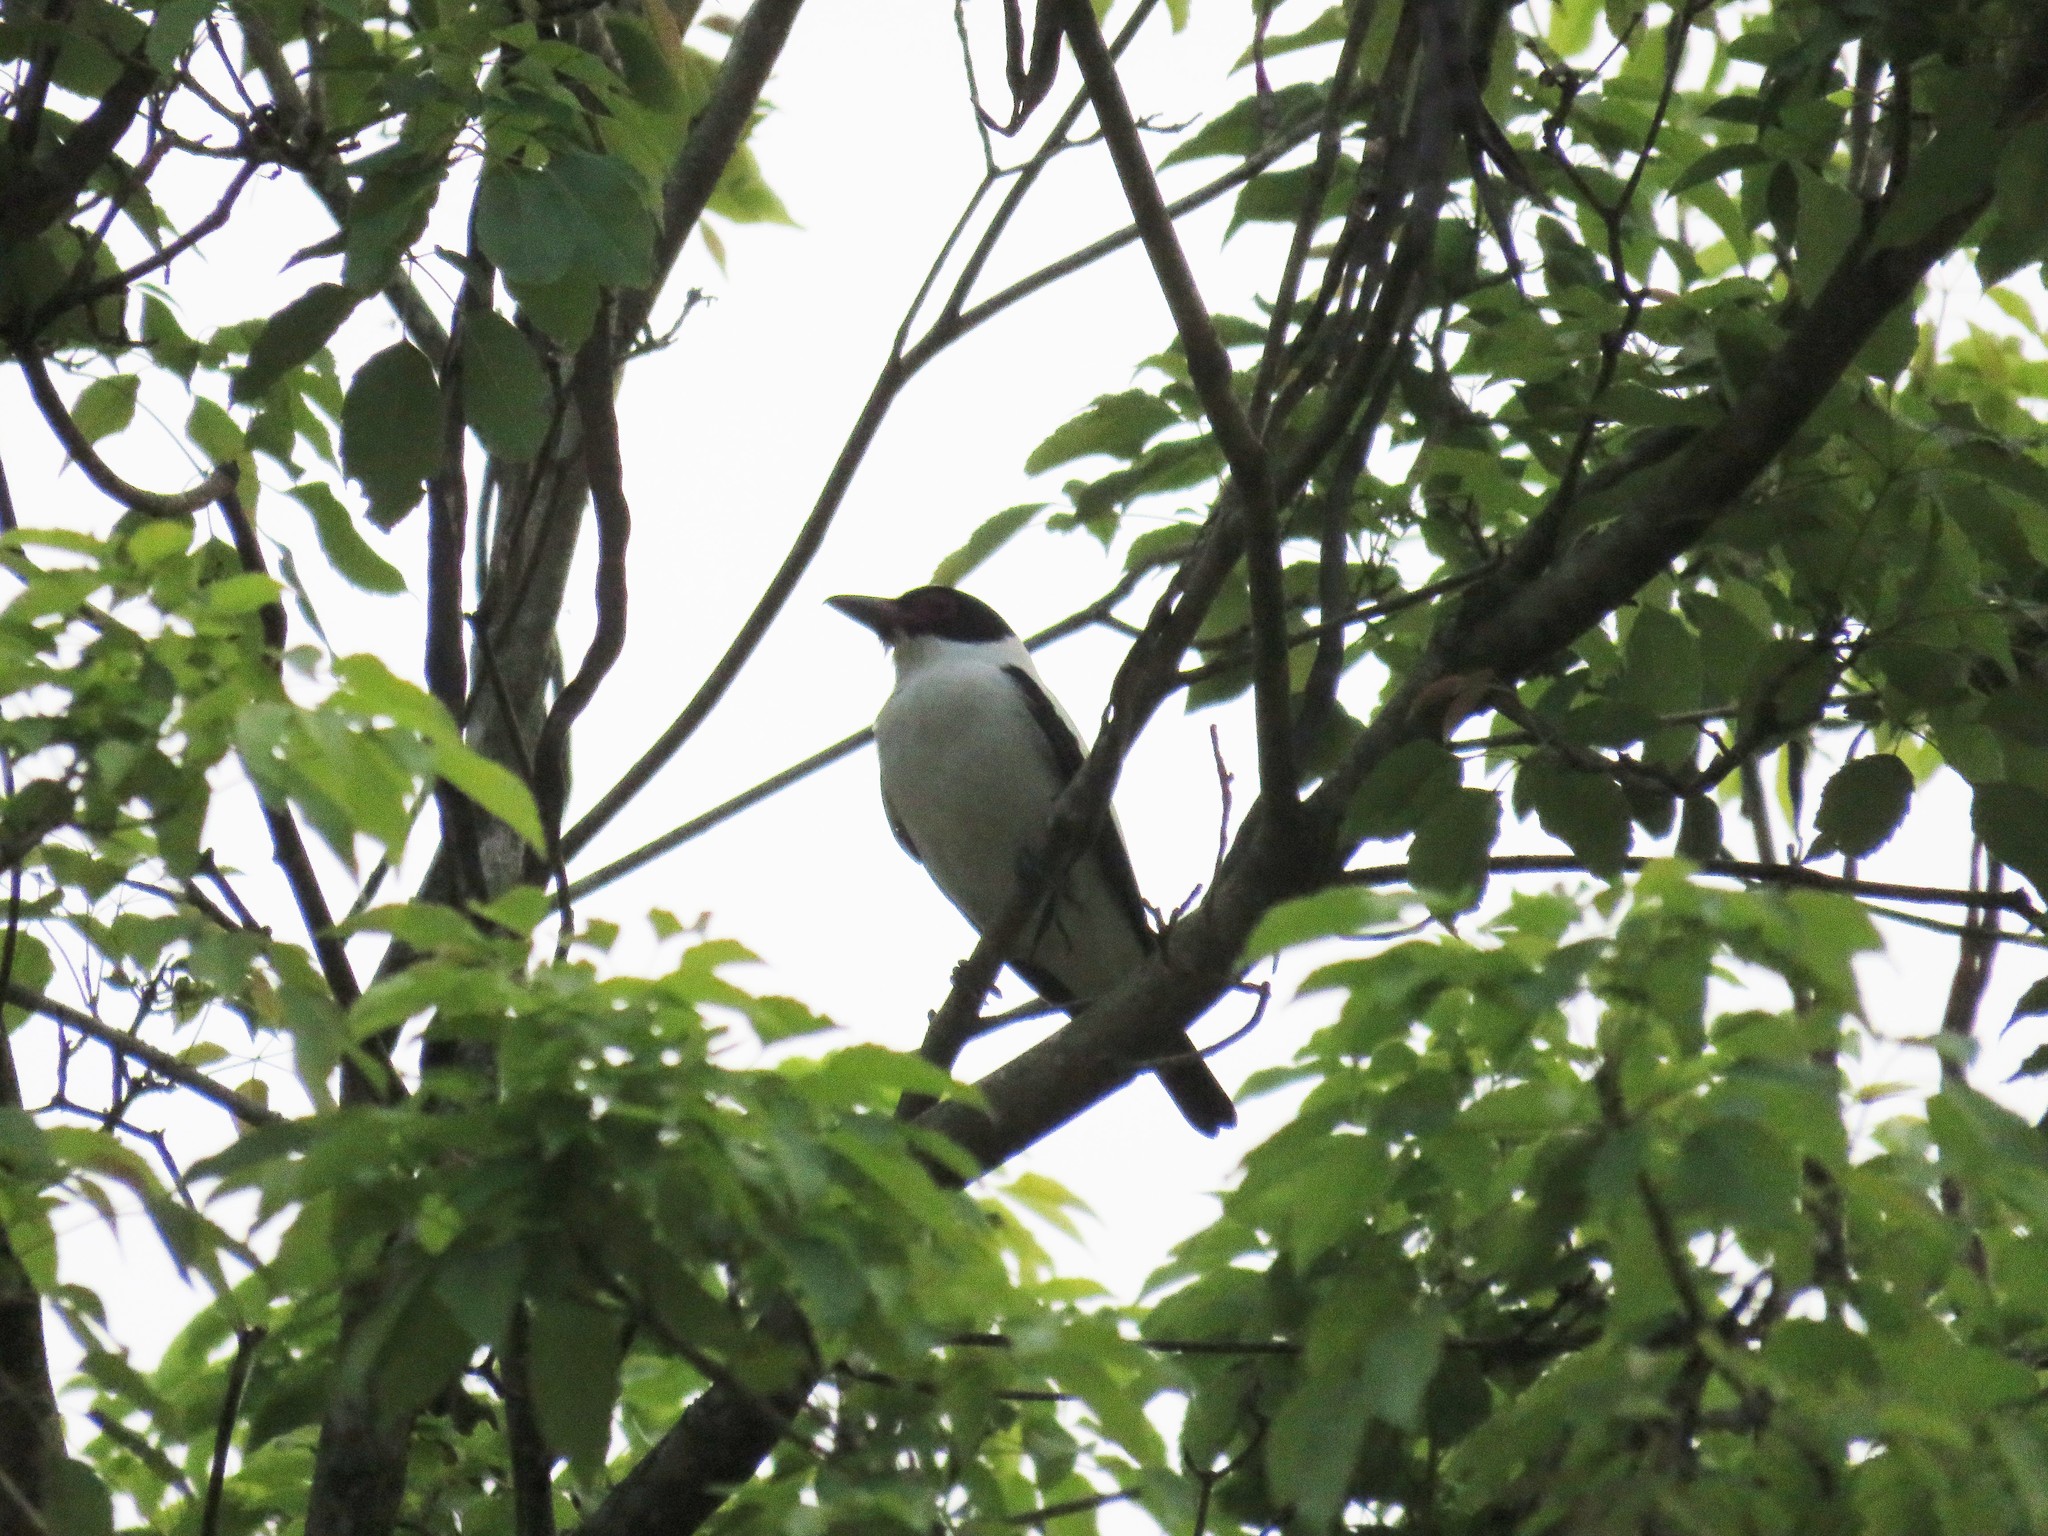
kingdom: Animalia
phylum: Chordata
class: Aves
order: Passeriformes
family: Cotingidae
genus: Tityra
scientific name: Tityra cayana
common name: Black-tailed tityra
